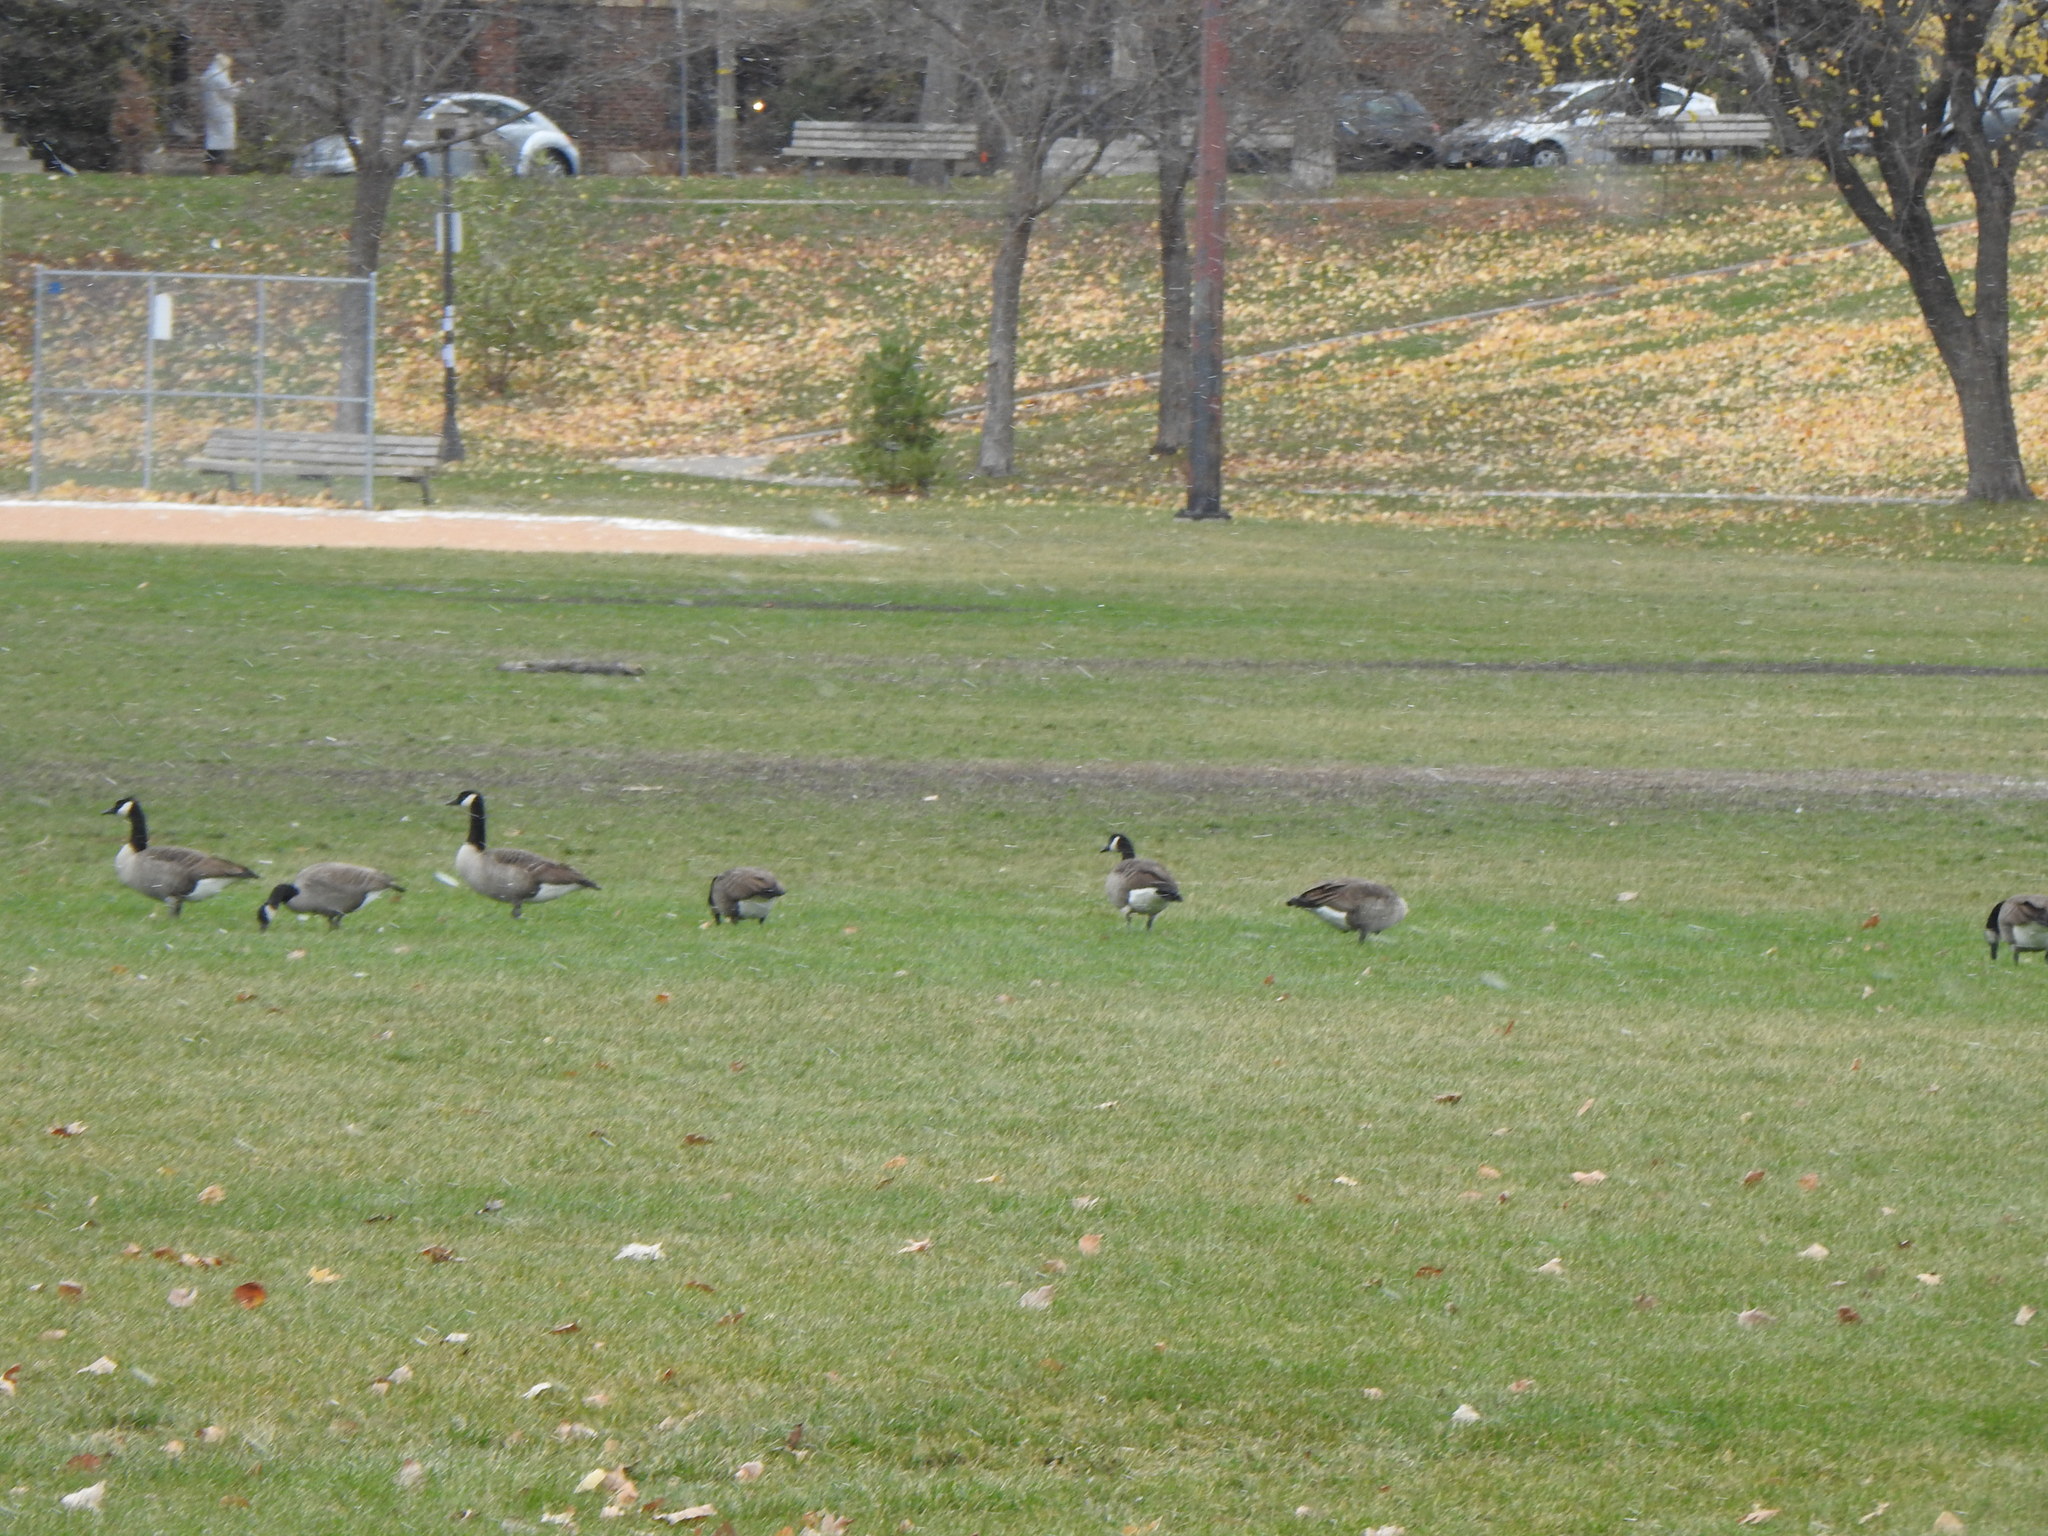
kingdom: Animalia
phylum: Chordata
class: Aves
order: Anseriformes
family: Anatidae
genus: Branta
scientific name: Branta canadensis
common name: Canada goose
